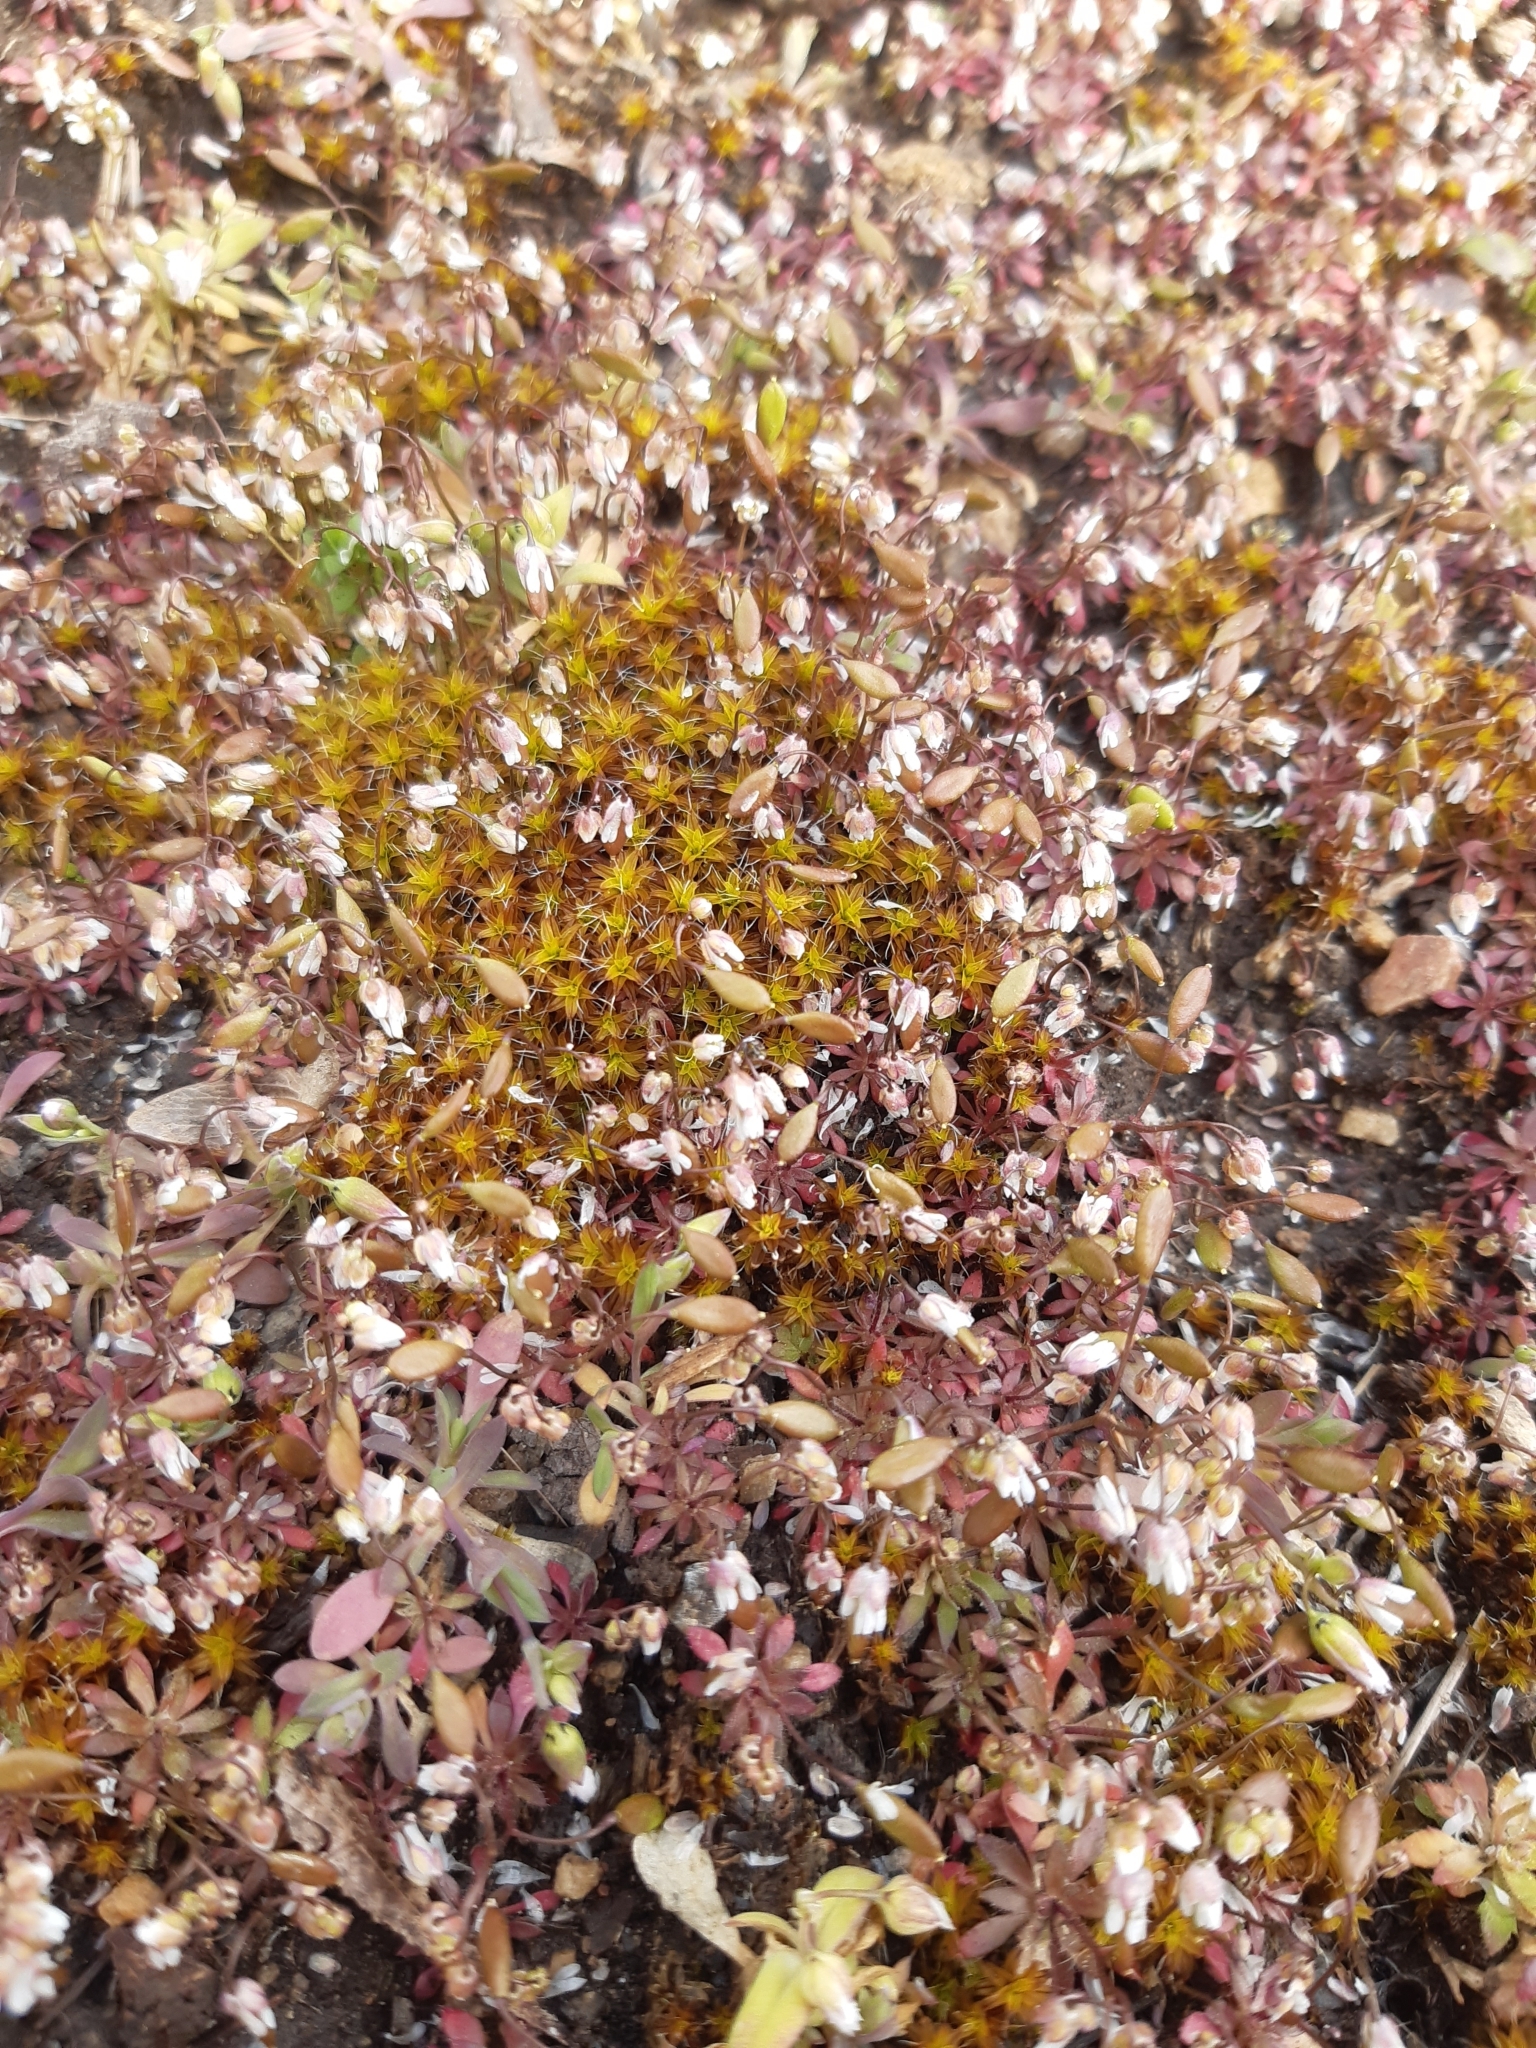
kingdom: Plantae
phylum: Tracheophyta
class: Magnoliopsida
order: Brassicales
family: Brassicaceae
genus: Draba
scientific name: Draba verna
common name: Spring draba
